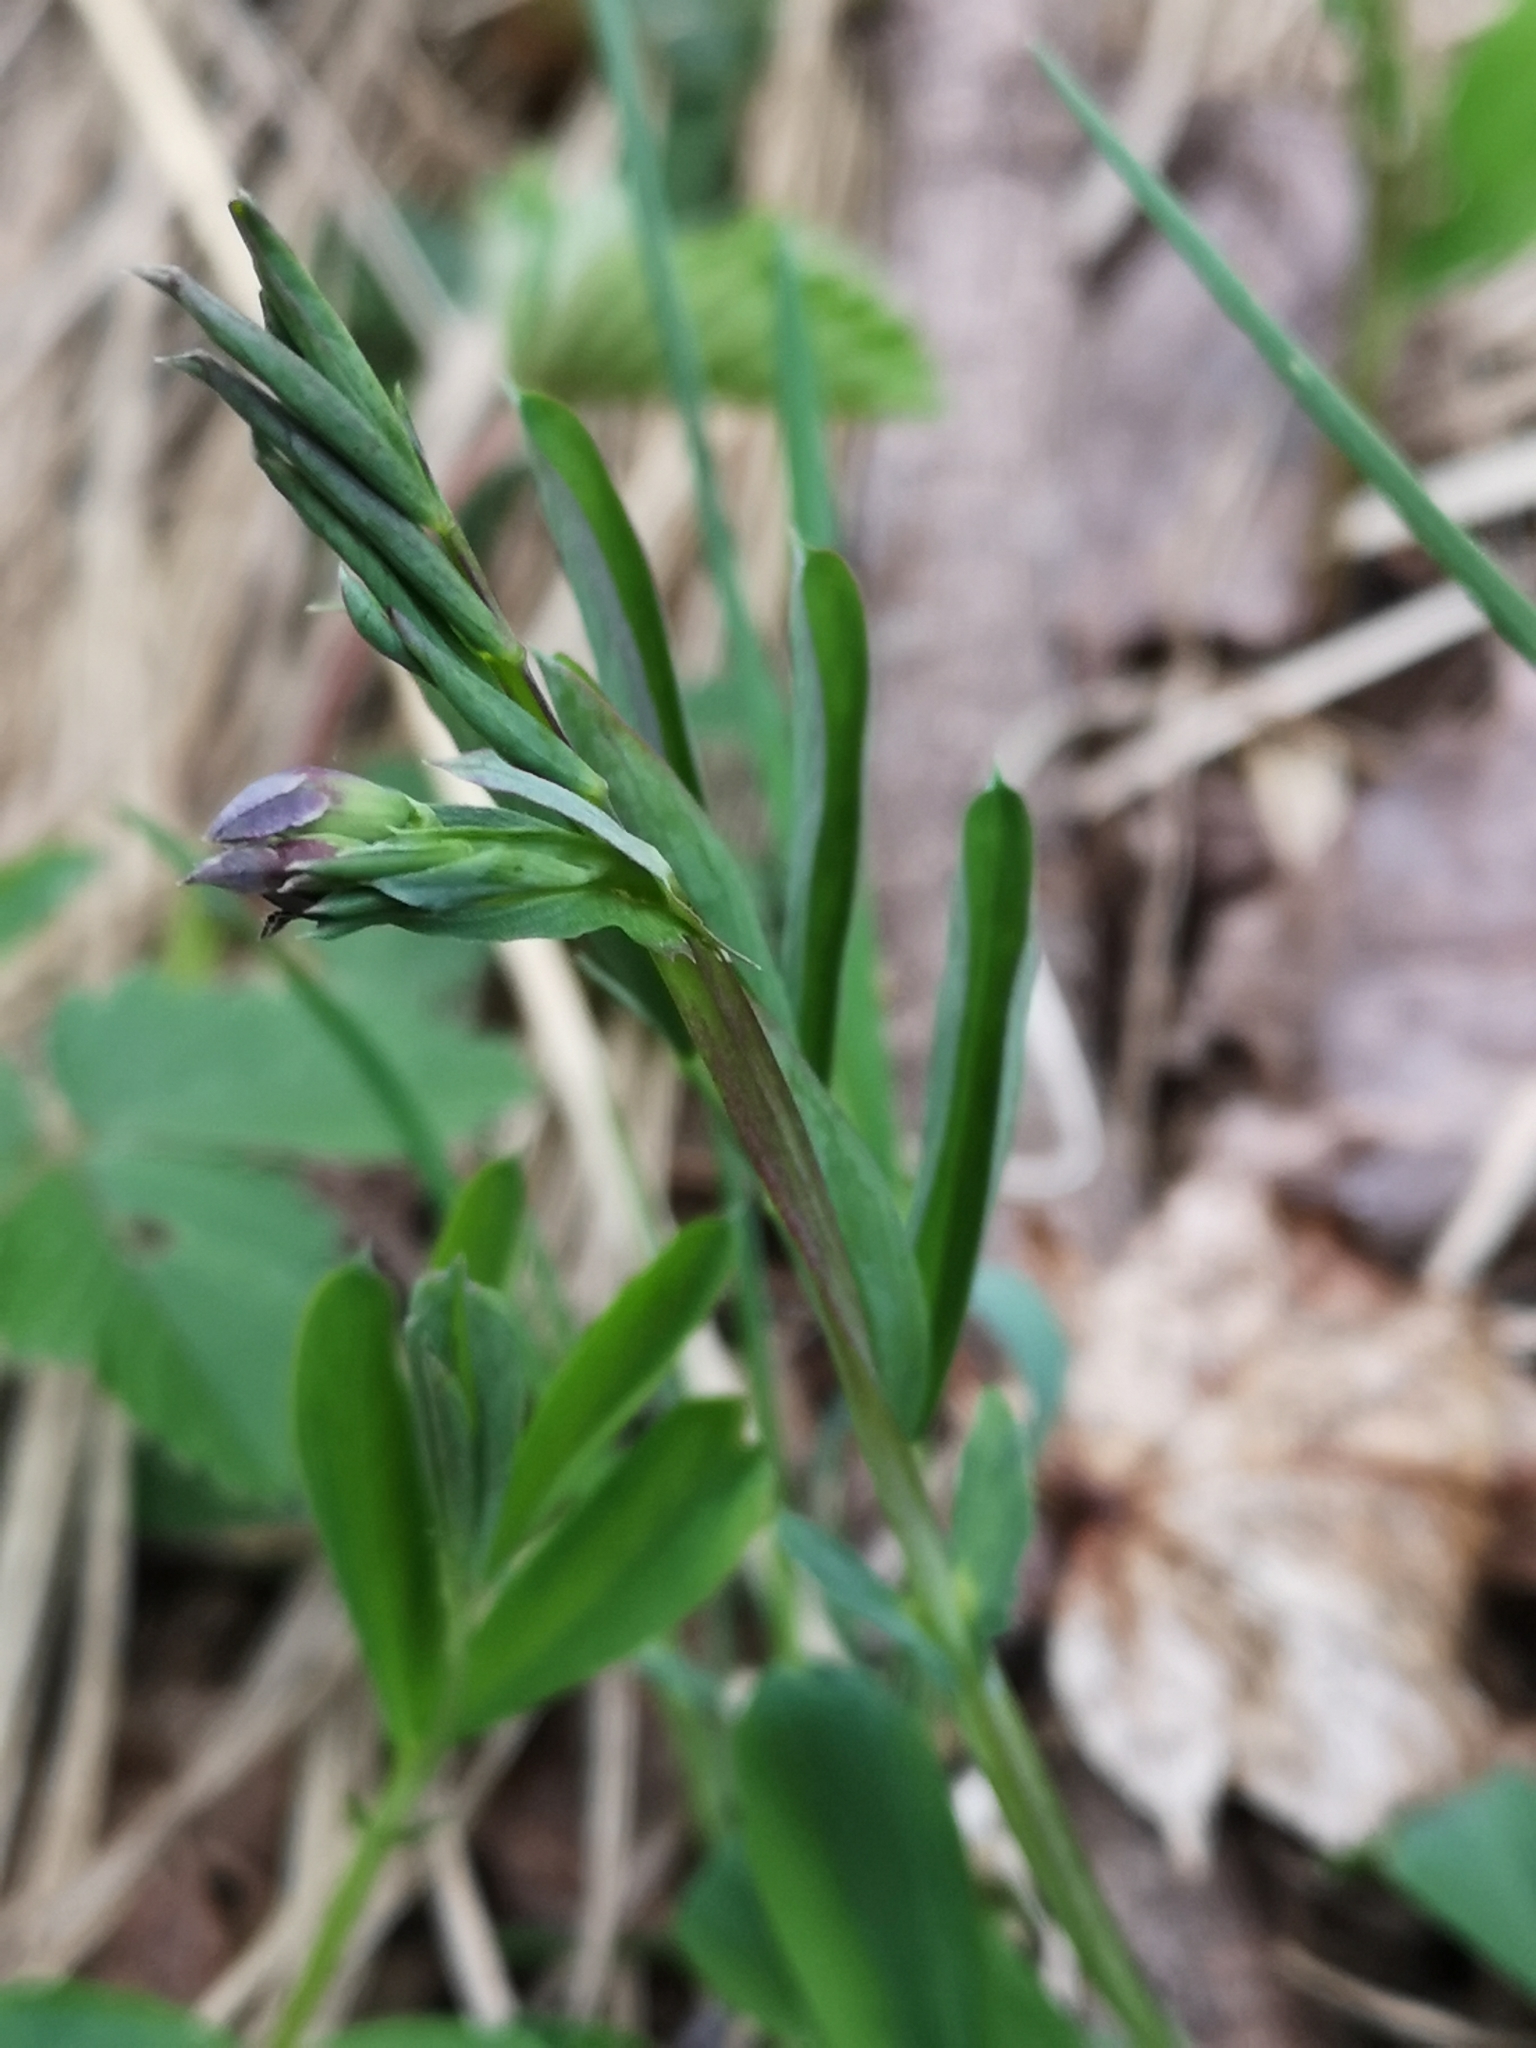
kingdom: Plantae
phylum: Tracheophyta
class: Magnoliopsida
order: Fabales
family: Fabaceae
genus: Lathyrus
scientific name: Lathyrus linifolius
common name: Bitter-vetch
